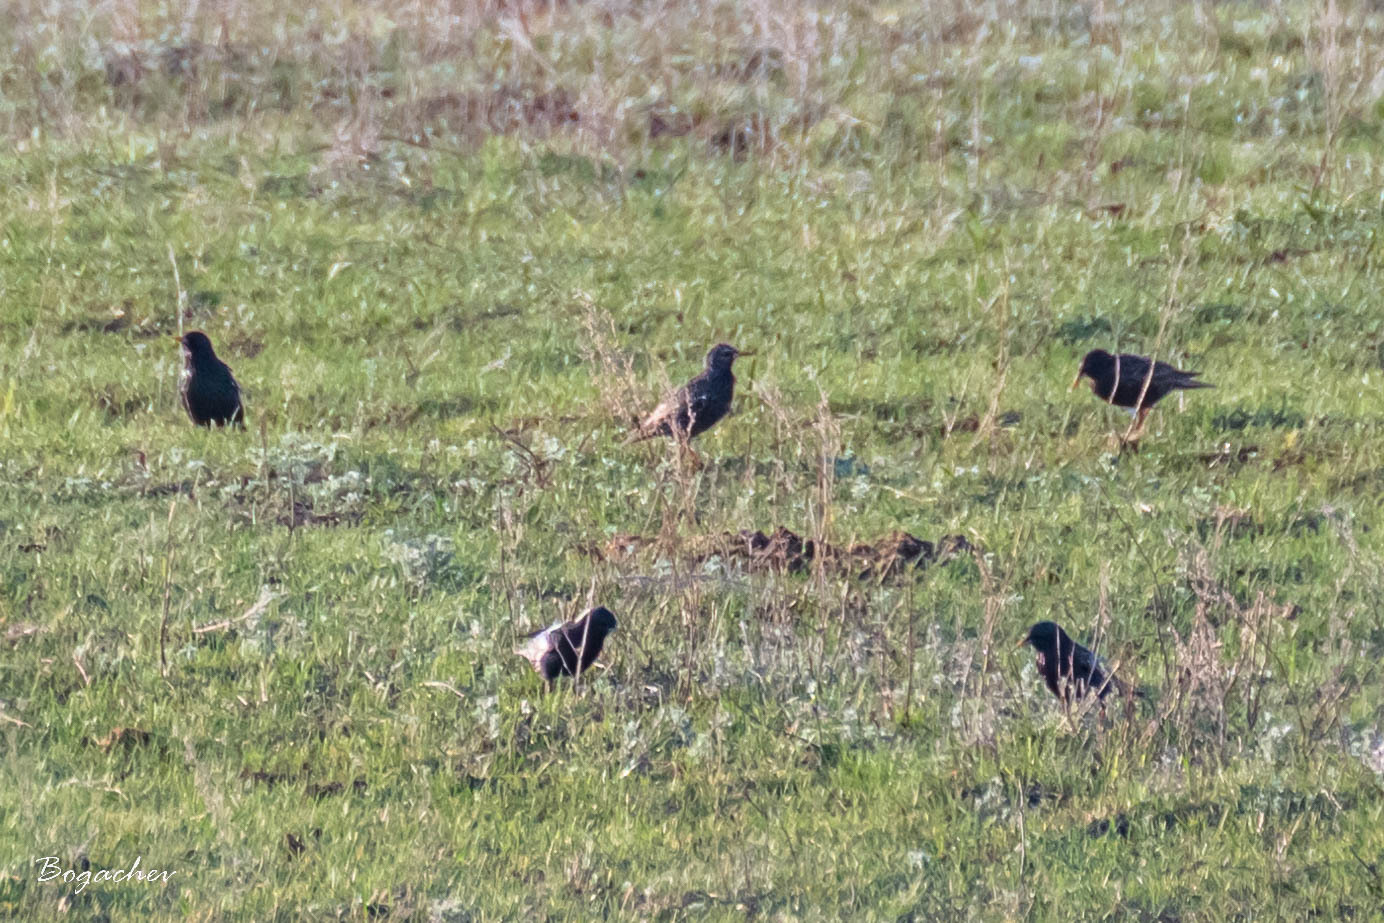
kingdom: Animalia
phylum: Chordata
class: Aves
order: Passeriformes
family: Sturnidae
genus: Sturnus
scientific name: Sturnus vulgaris
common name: Common starling
